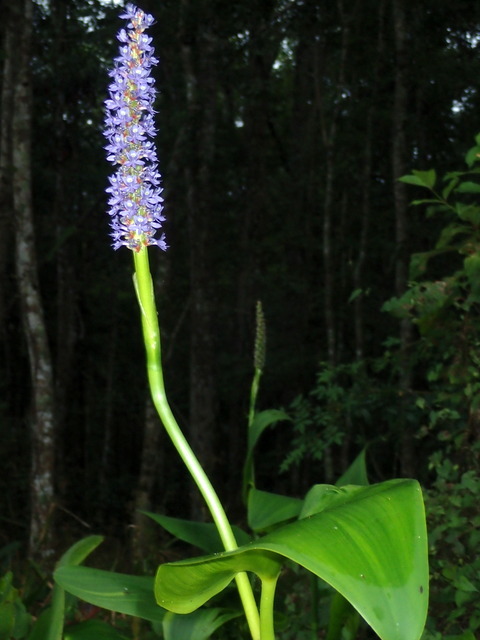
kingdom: Plantae
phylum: Tracheophyta
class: Liliopsida
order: Commelinales
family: Pontederiaceae
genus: Pontederia
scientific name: Pontederia cordata
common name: Pickerelweed
